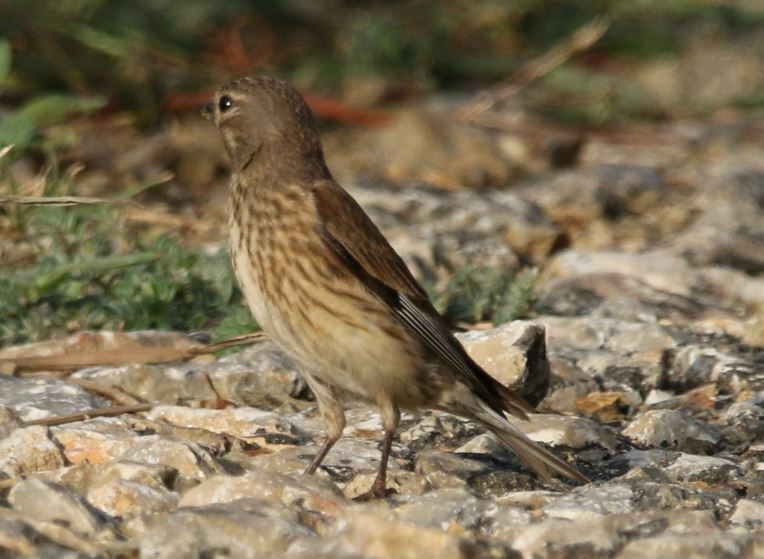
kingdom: Animalia
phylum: Chordata
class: Aves
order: Passeriformes
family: Fringillidae
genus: Linaria
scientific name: Linaria cannabina
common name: Common linnet
